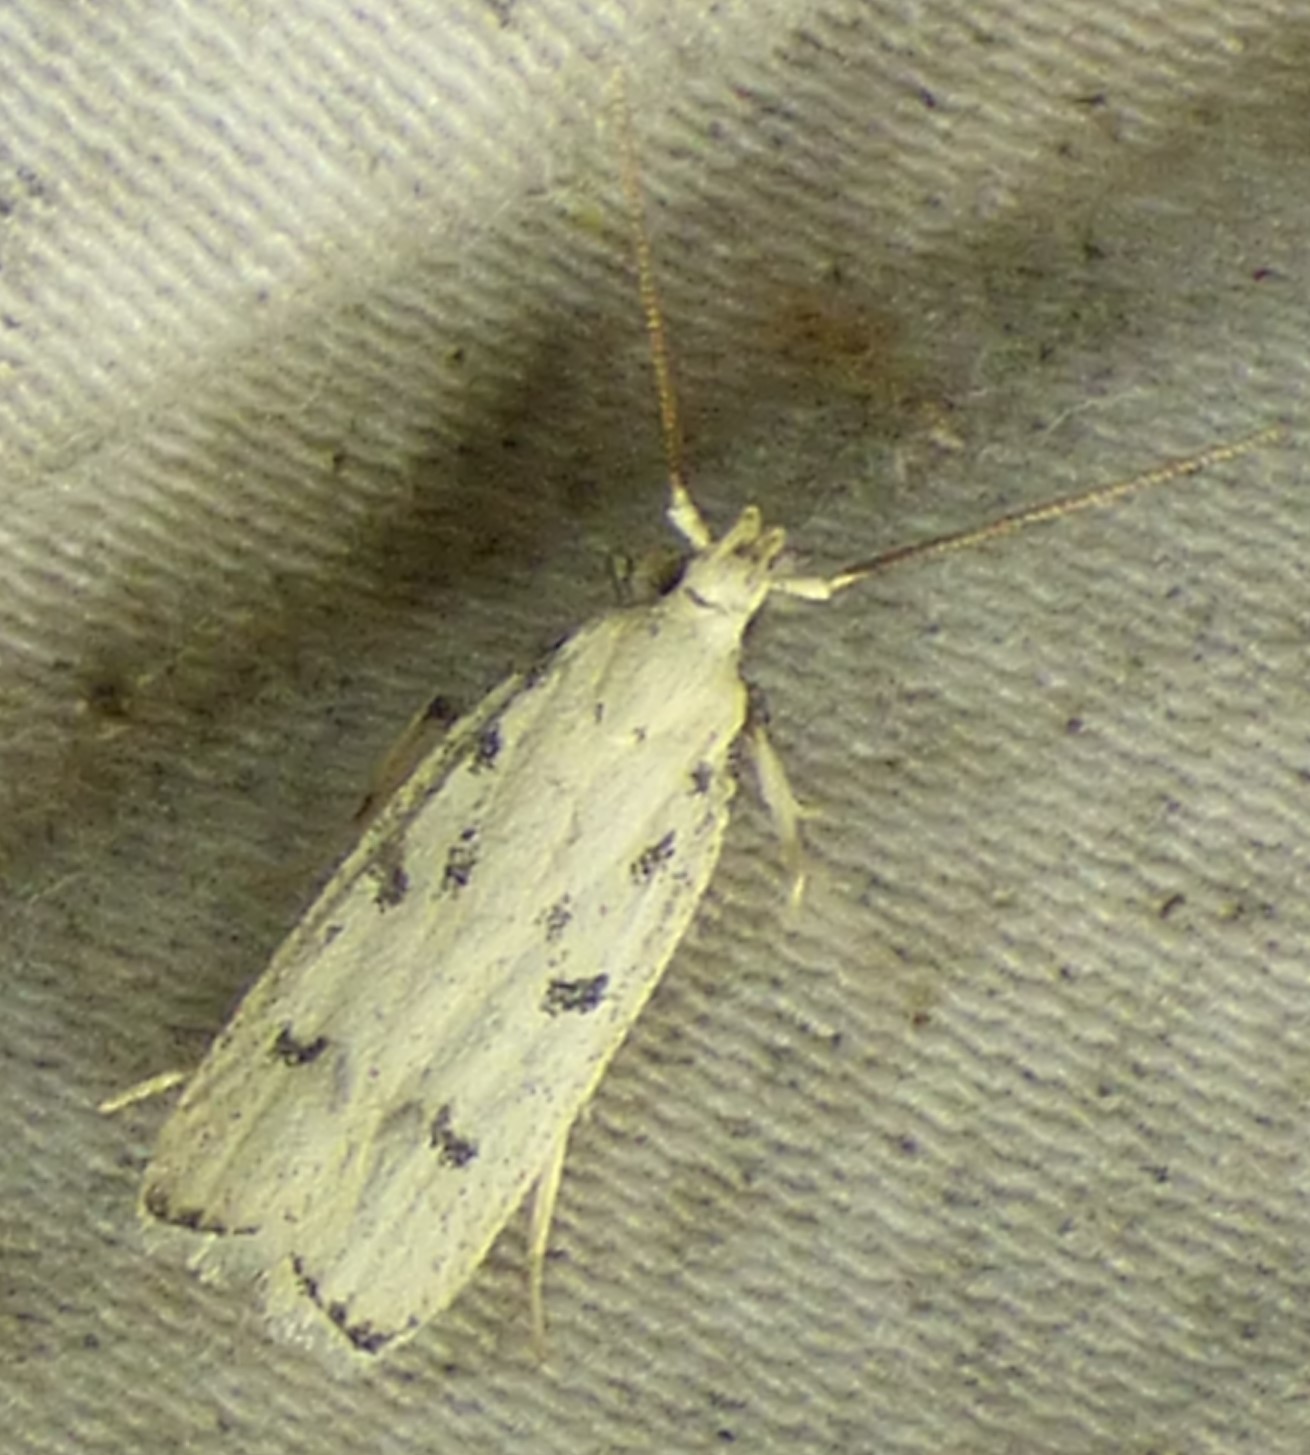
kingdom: Animalia
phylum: Arthropoda
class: Insecta
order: Lepidoptera
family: Autostichidae
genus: Glyphidocera
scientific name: Glyphidocera lactiflosella
